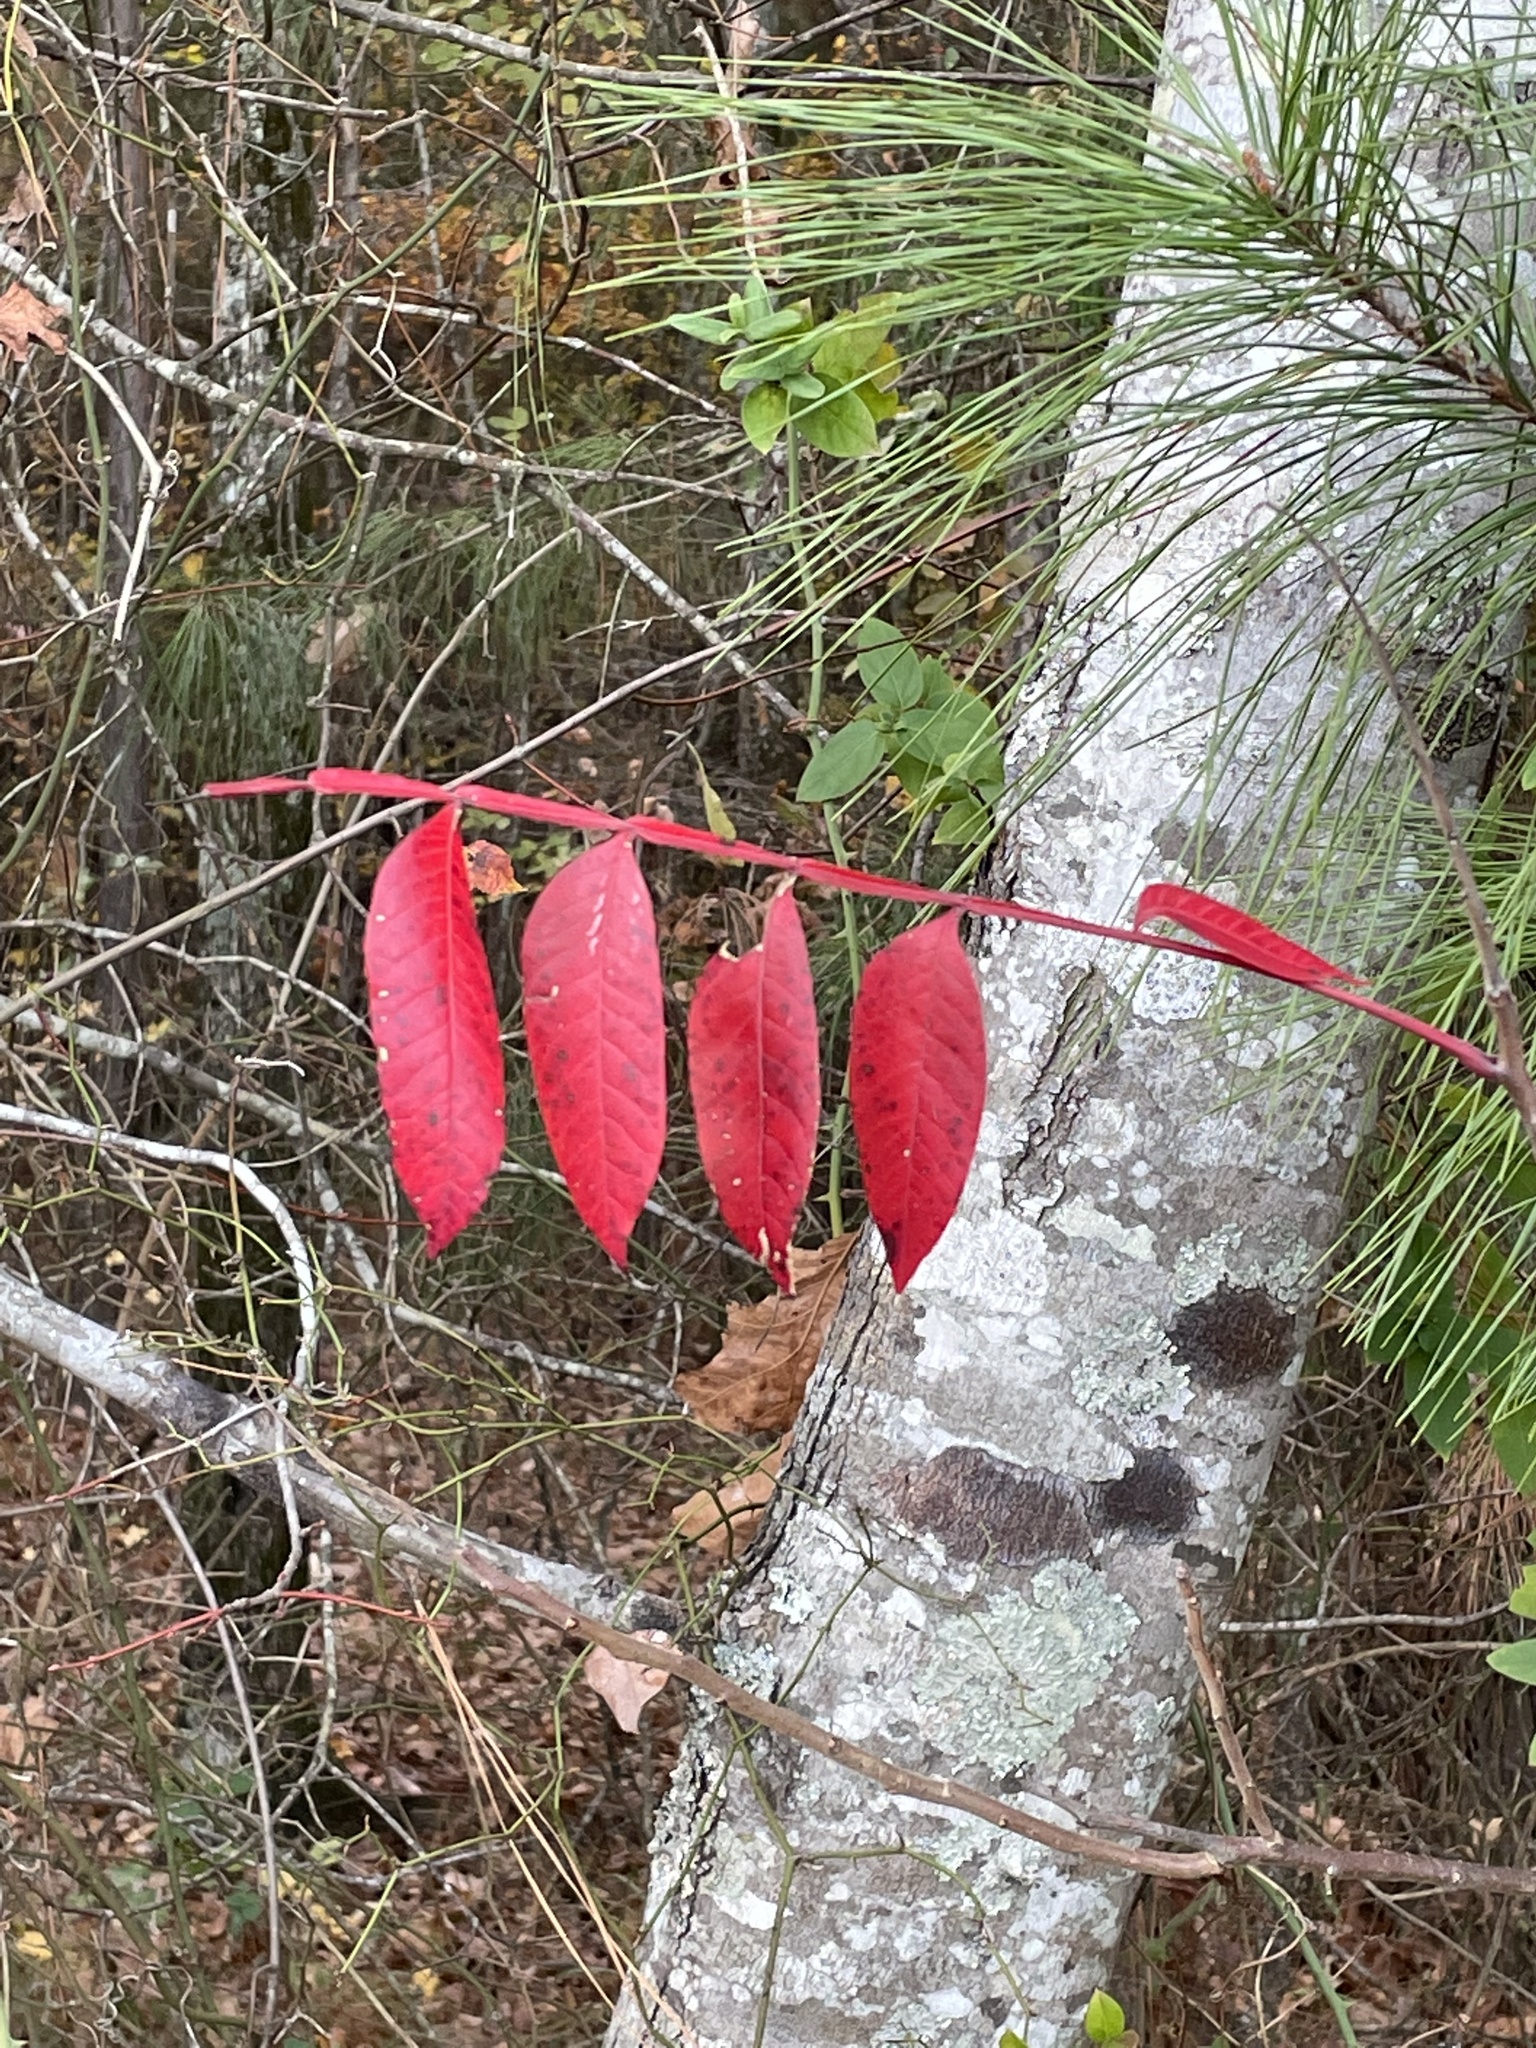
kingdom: Plantae
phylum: Tracheophyta
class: Magnoliopsida
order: Sapindales
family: Anacardiaceae
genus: Rhus
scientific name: Rhus copallina
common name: Shining sumac
